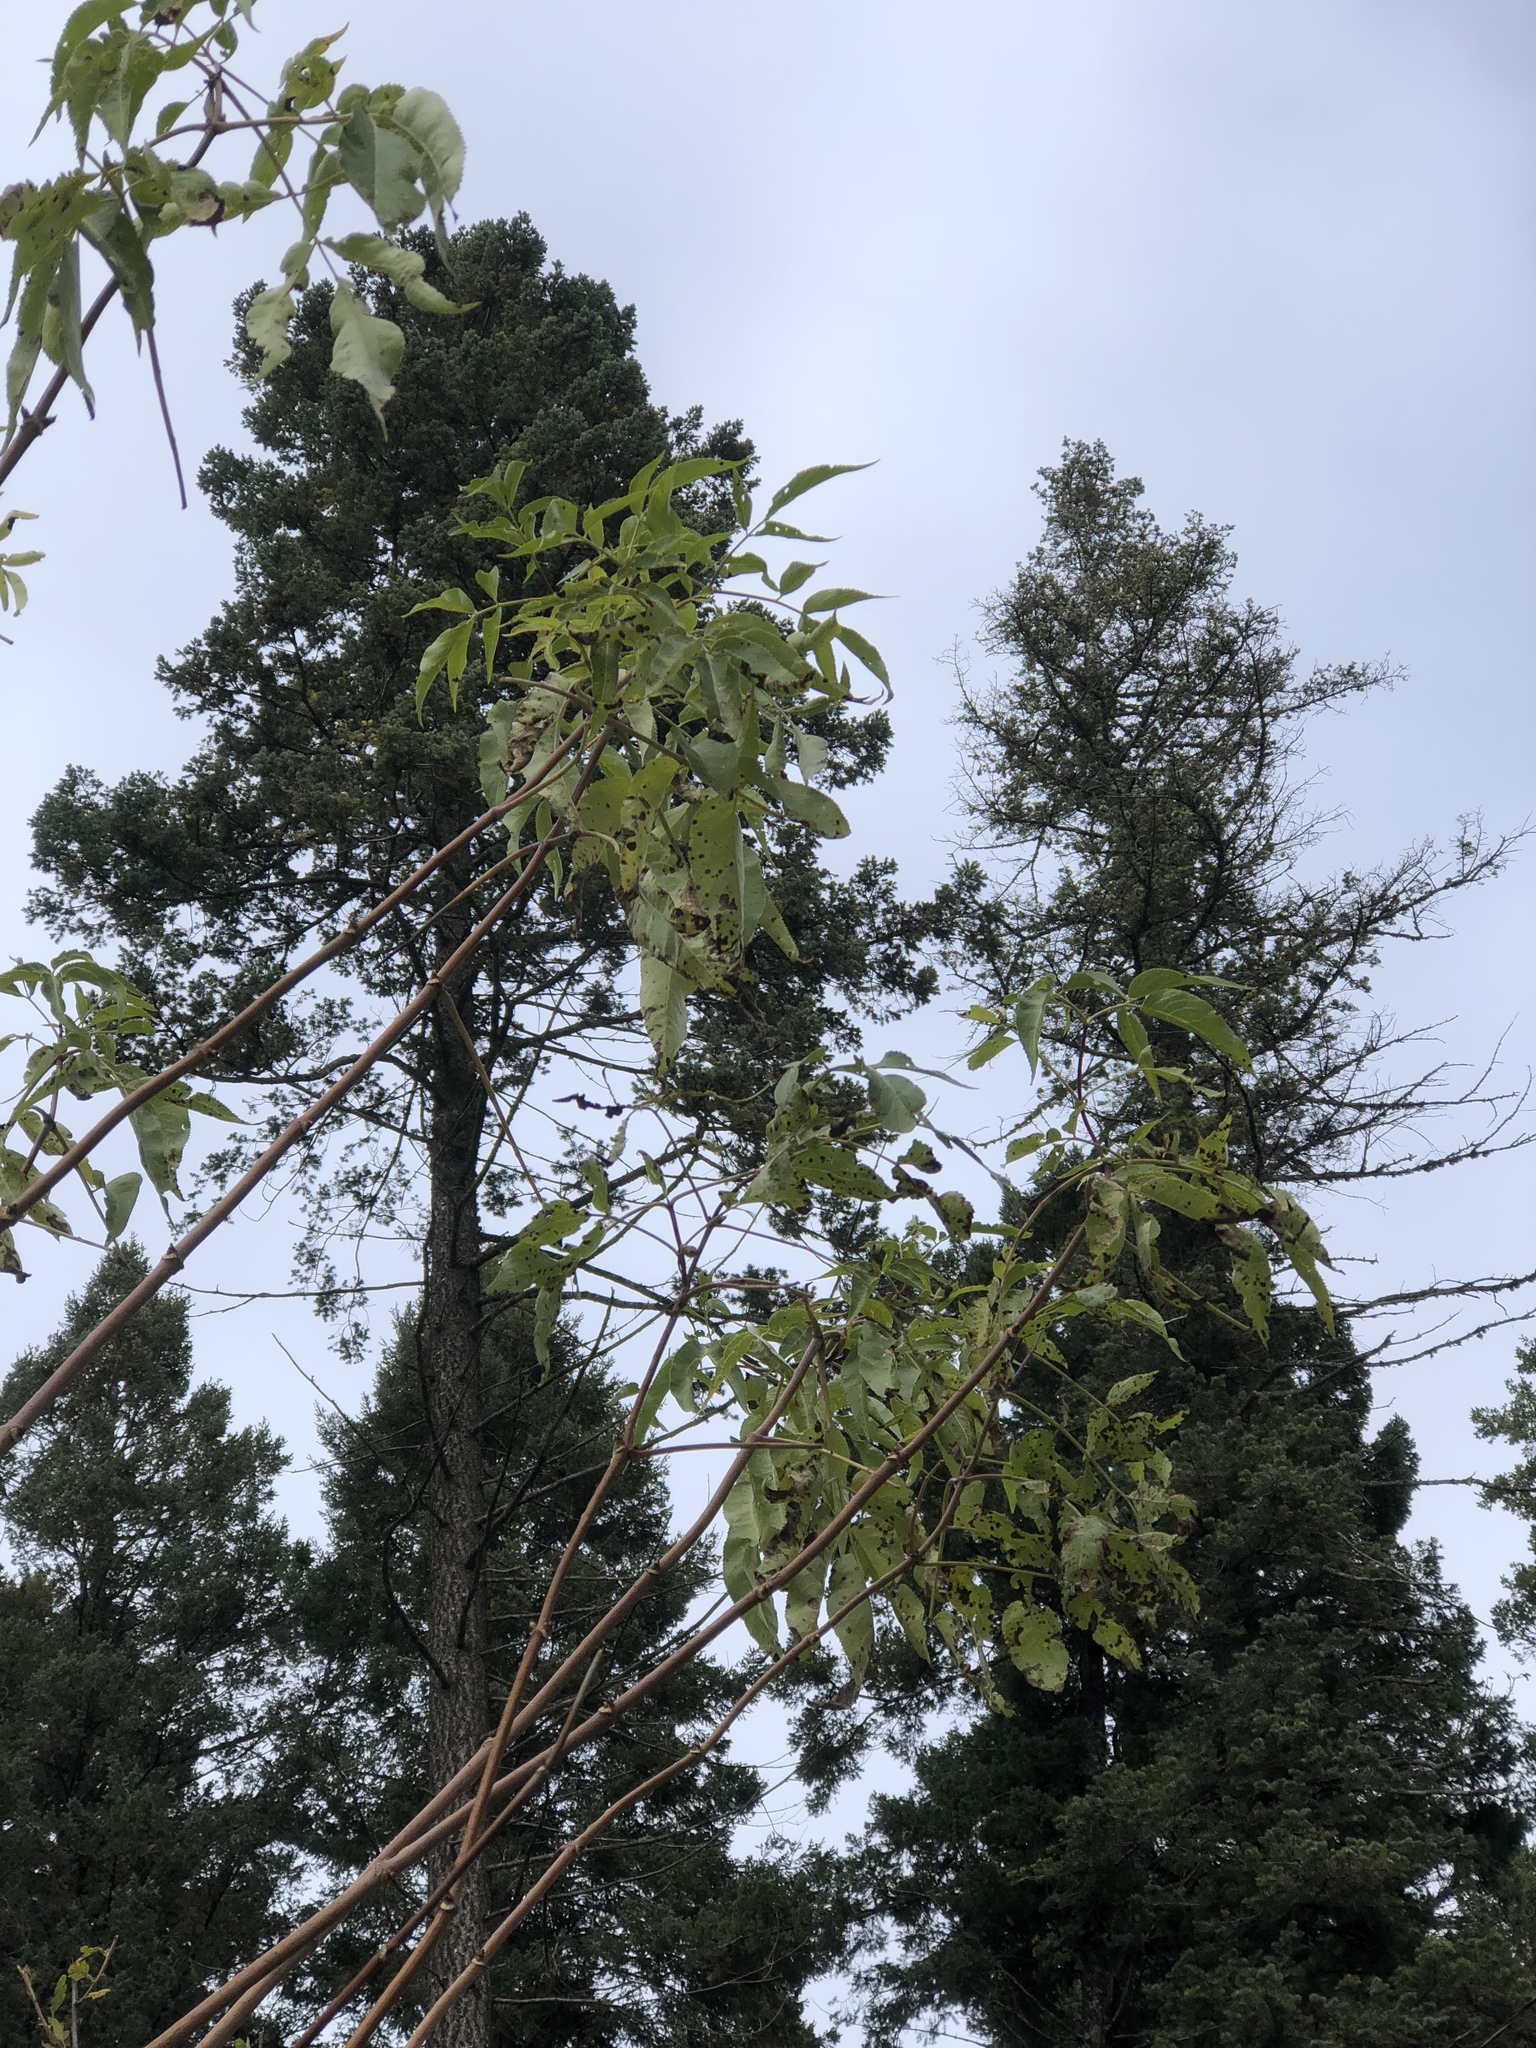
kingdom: Plantae
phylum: Tracheophyta
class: Magnoliopsida
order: Dipsacales
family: Viburnaceae
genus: Sambucus
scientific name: Sambucus cerulea
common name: Blue elder
